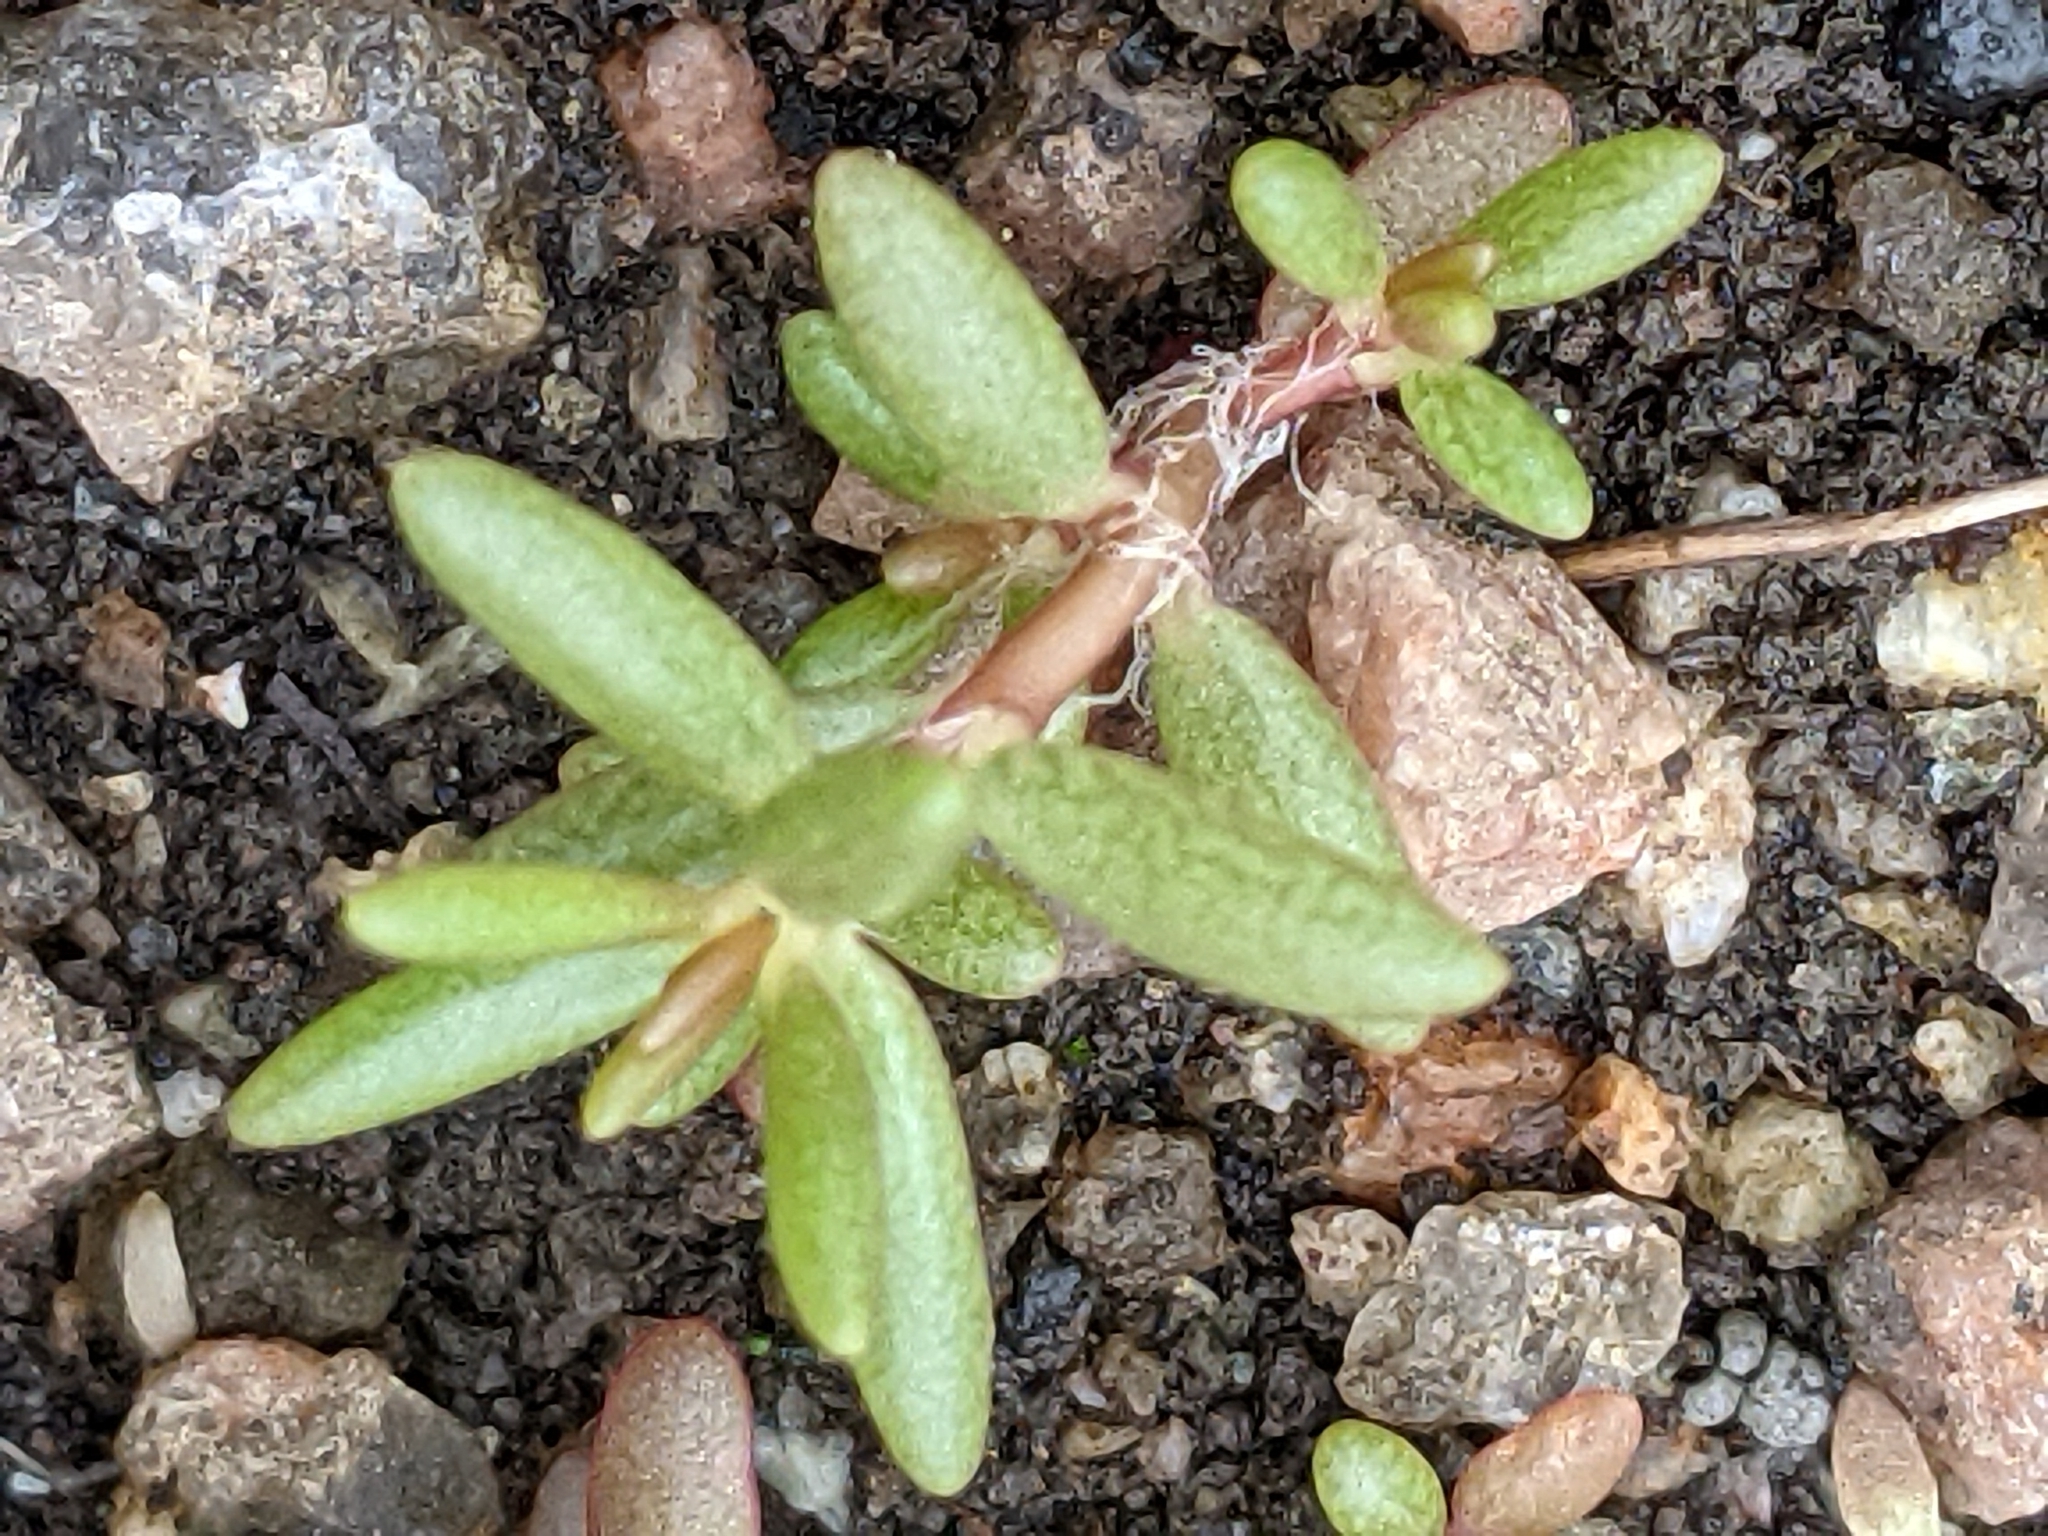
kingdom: Plantae
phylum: Tracheophyta
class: Magnoliopsida
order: Caryophyllales
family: Portulacaceae
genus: Portulaca
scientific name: Portulaca pilosa
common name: Kiss me quick
